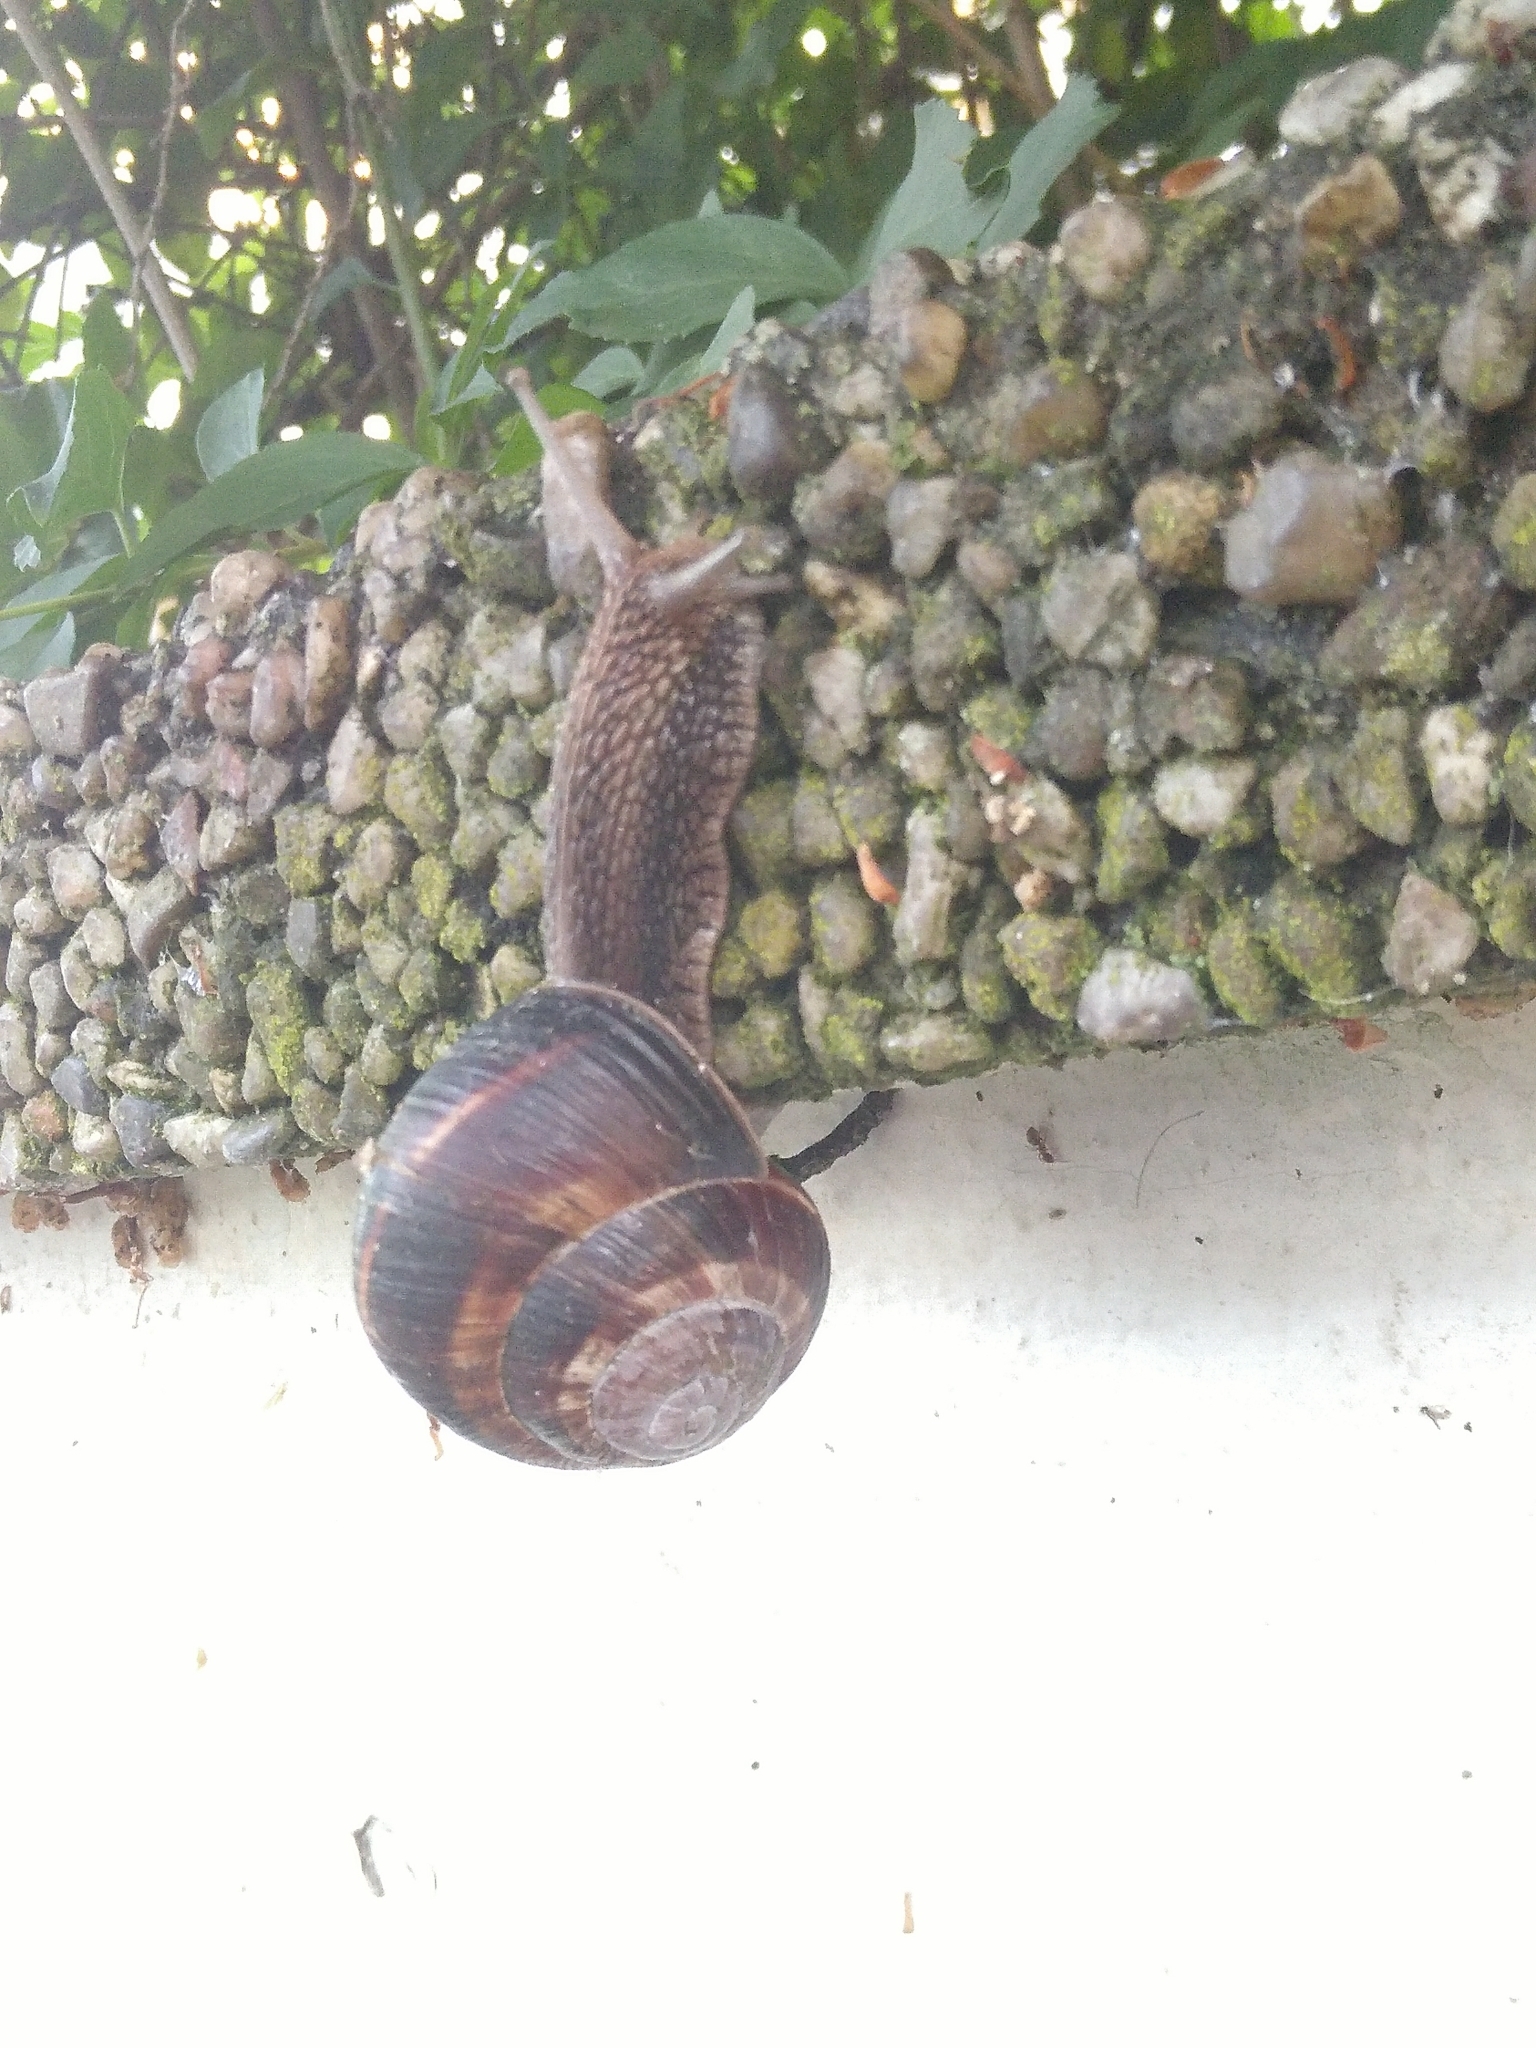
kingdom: Animalia
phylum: Mollusca
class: Gastropoda
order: Stylommatophora
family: Helicidae
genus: Helix
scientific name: Helix lucorum
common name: Turkish snail
